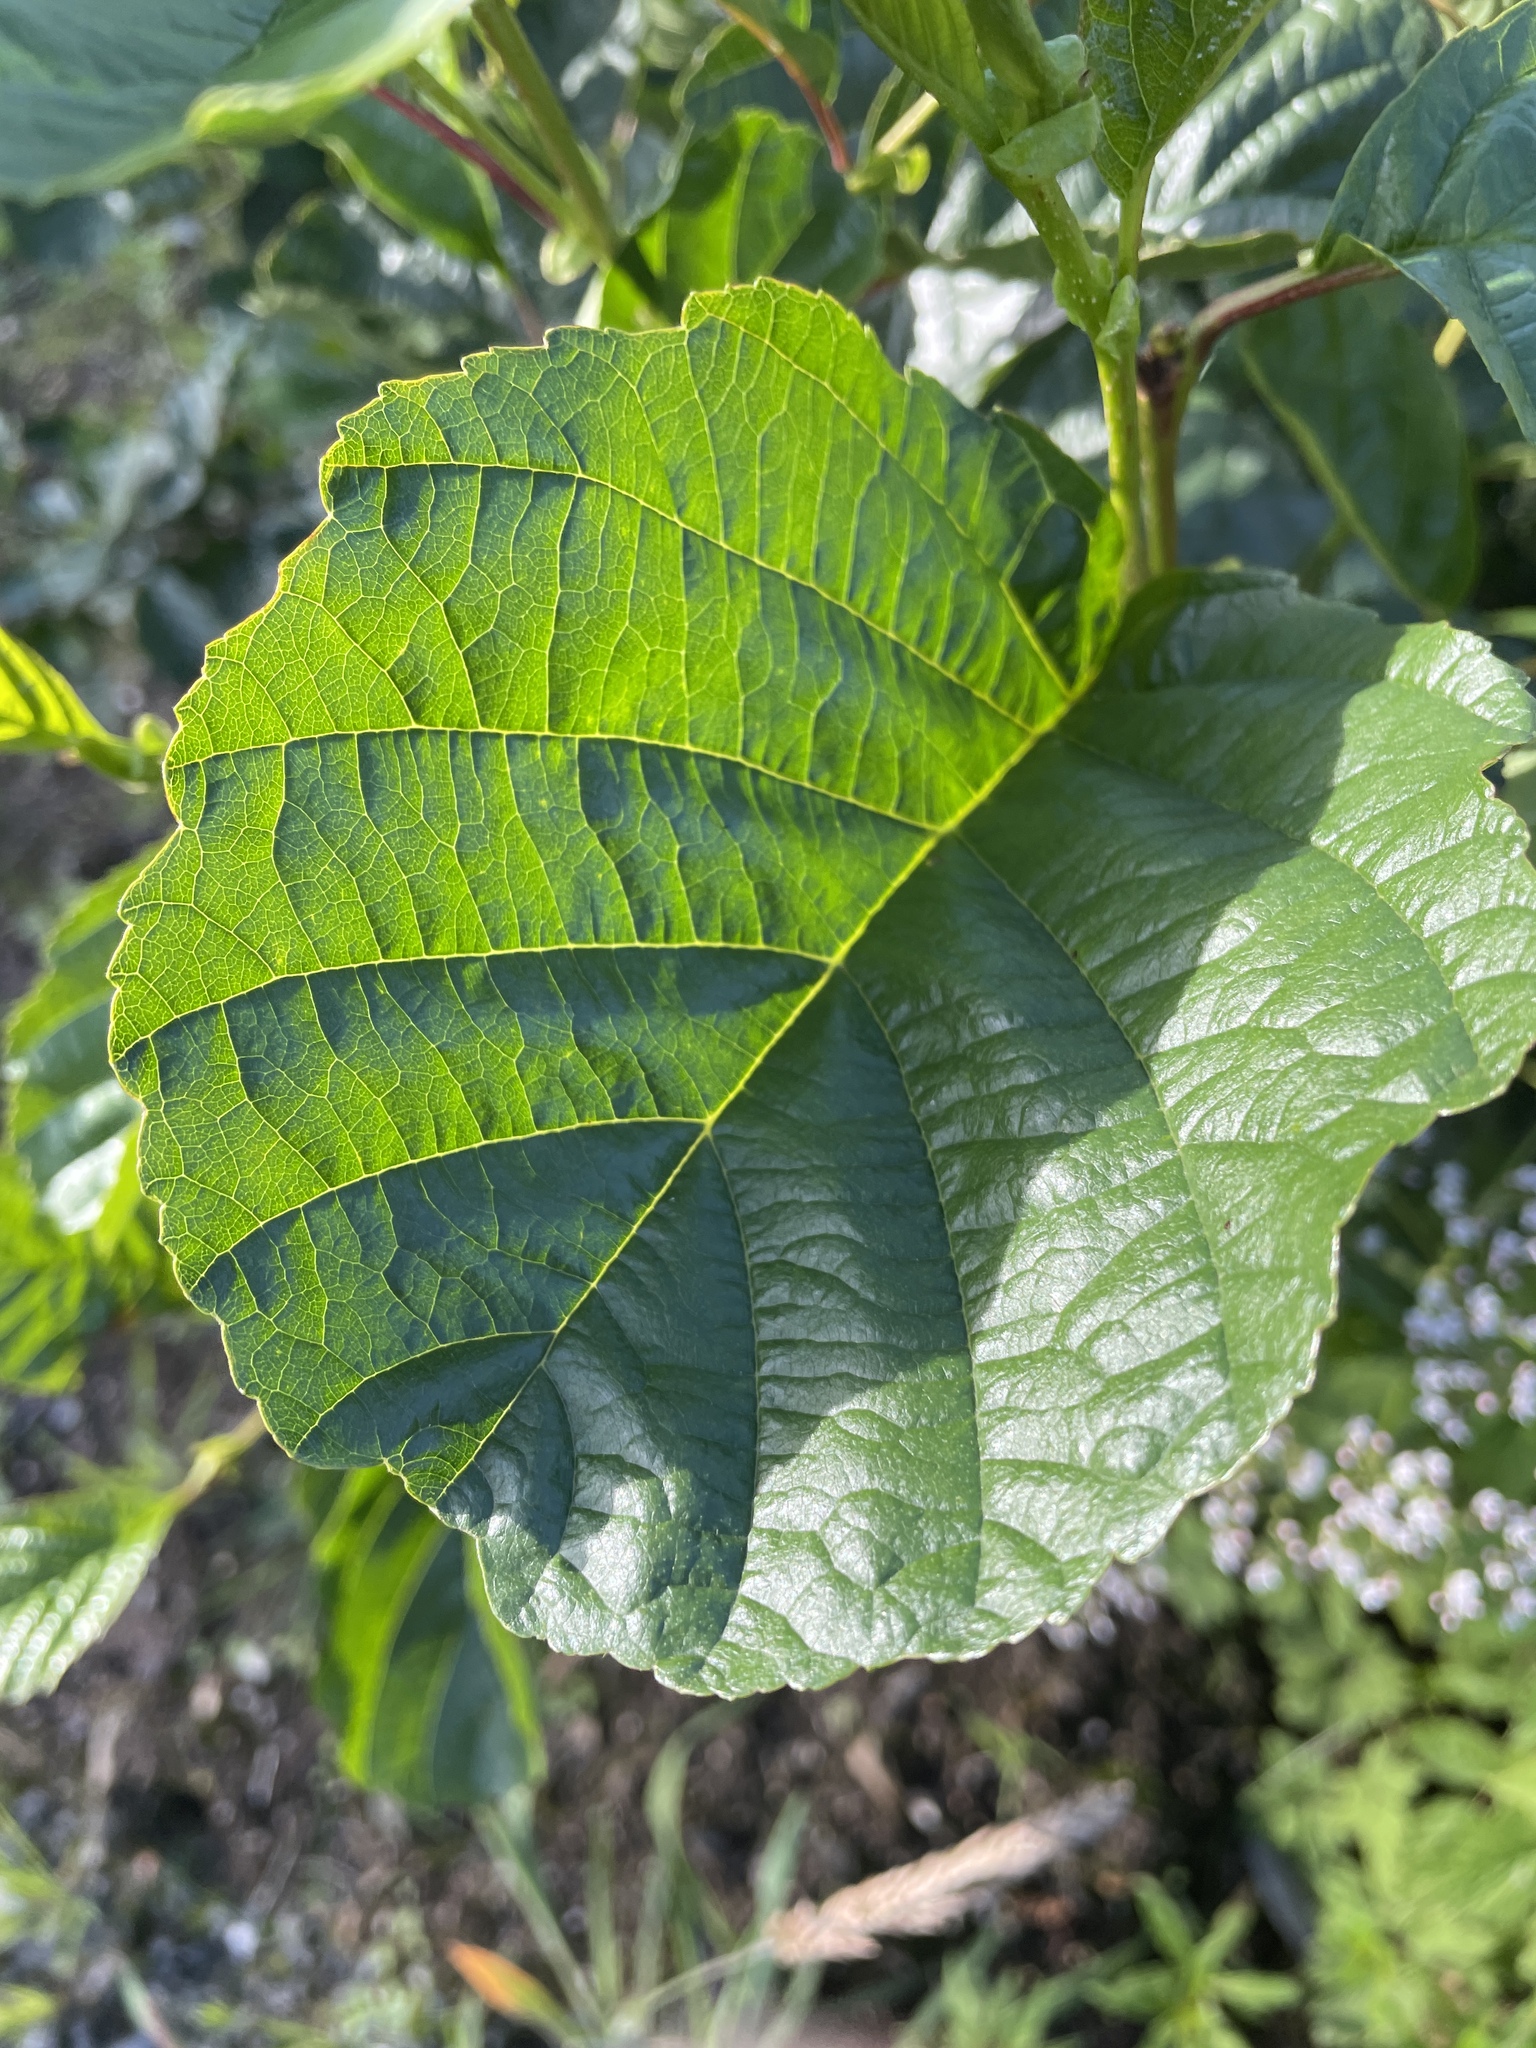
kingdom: Plantae
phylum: Tracheophyta
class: Magnoliopsida
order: Fagales
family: Betulaceae
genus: Alnus
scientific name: Alnus glutinosa
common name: Black alder
